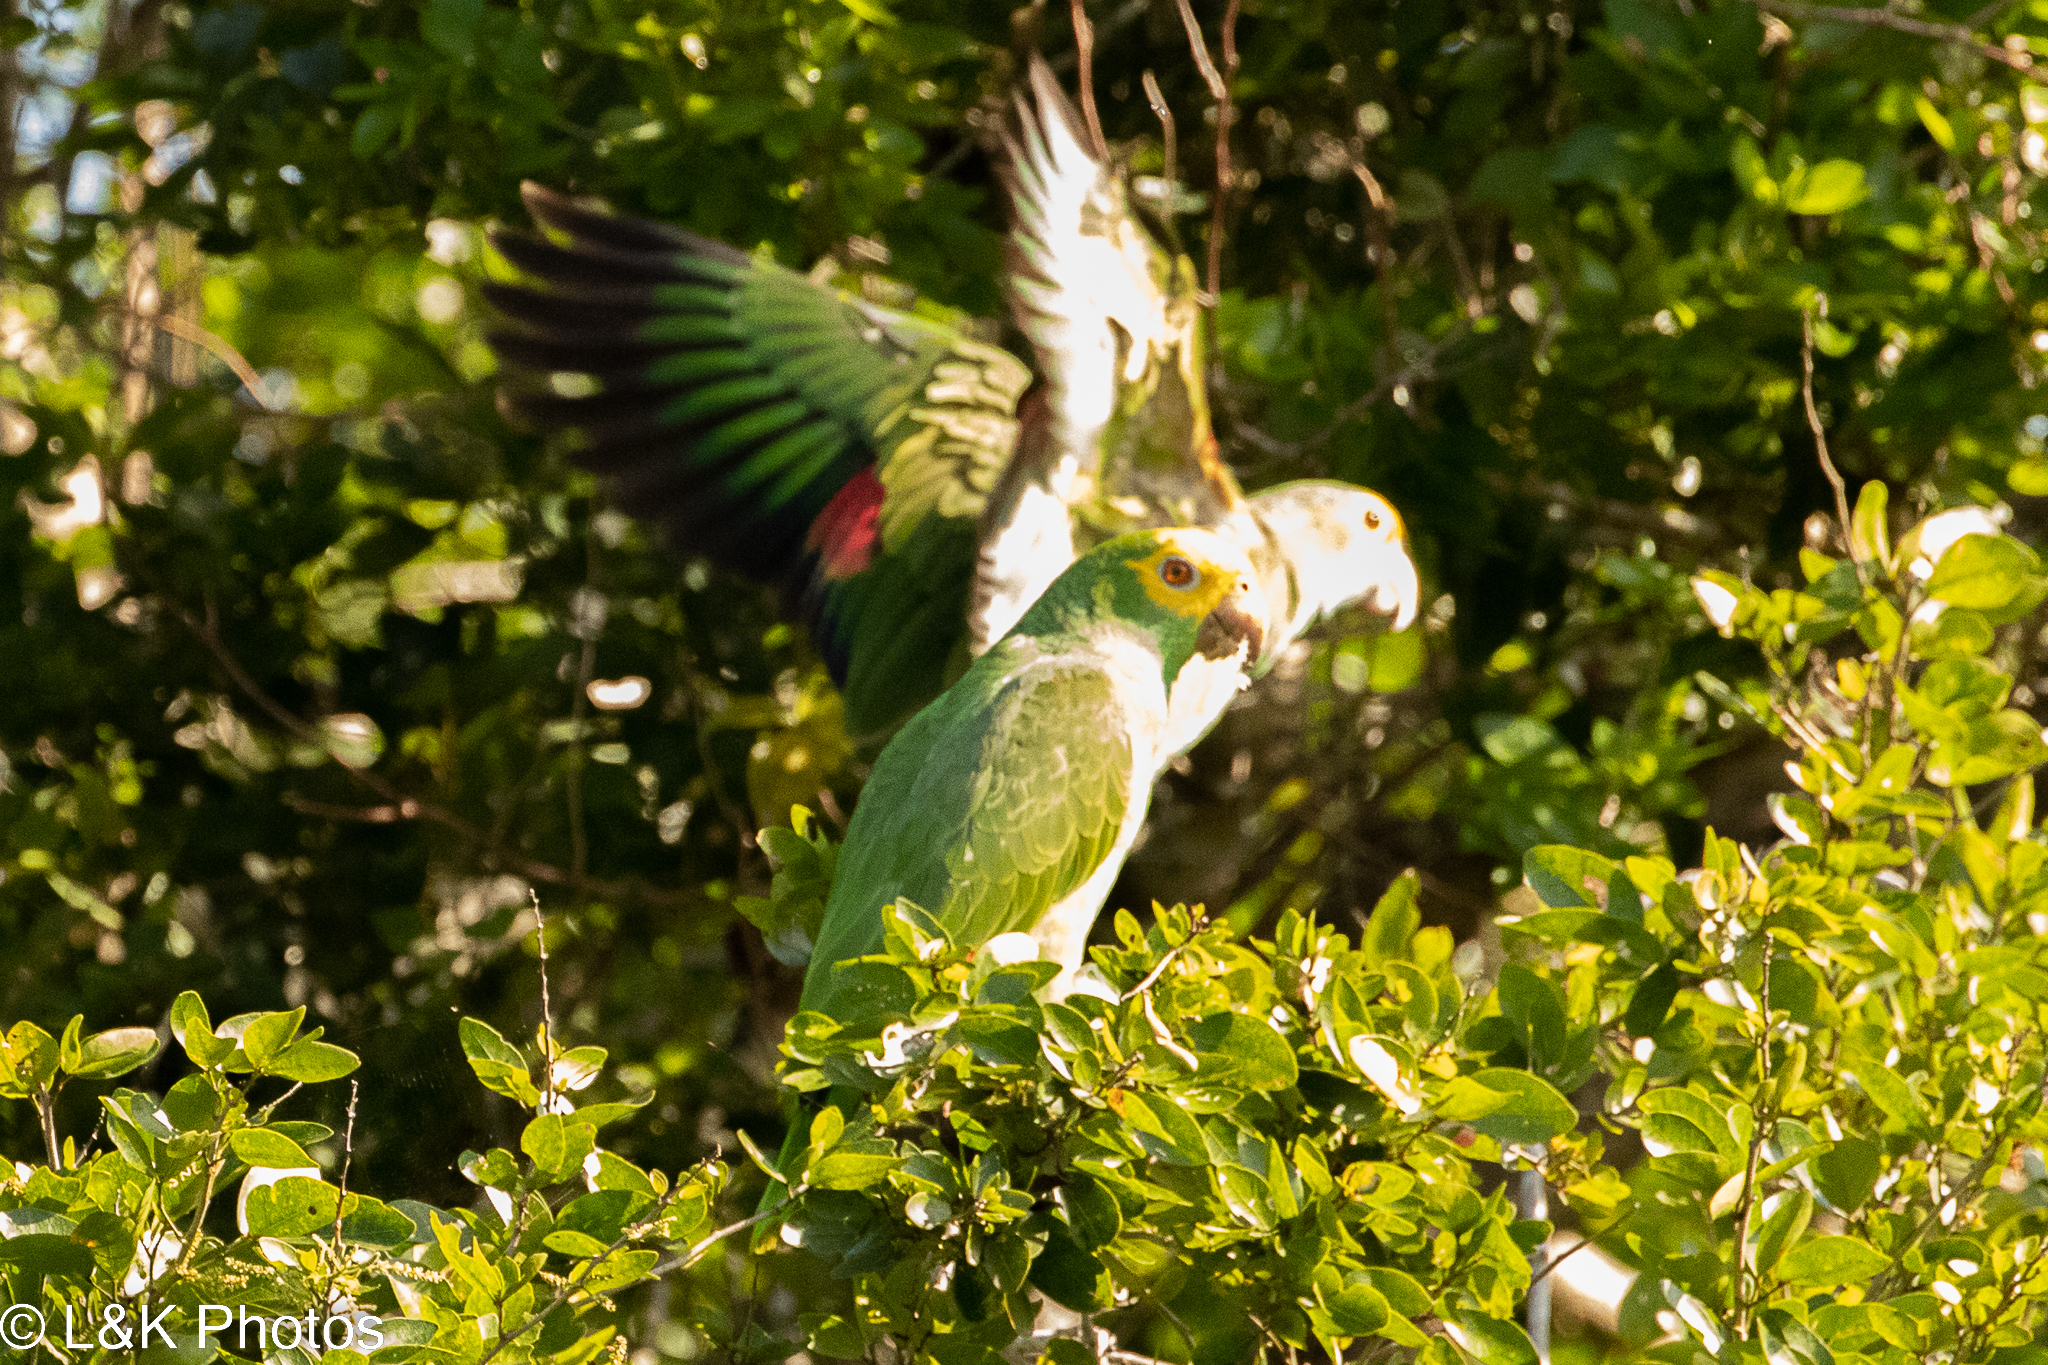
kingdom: Animalia
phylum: Chordata
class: Aves
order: Psittaciformes
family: Psittacidae
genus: Amazona
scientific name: Amazona oratrix
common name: Yellow-headed amazon
